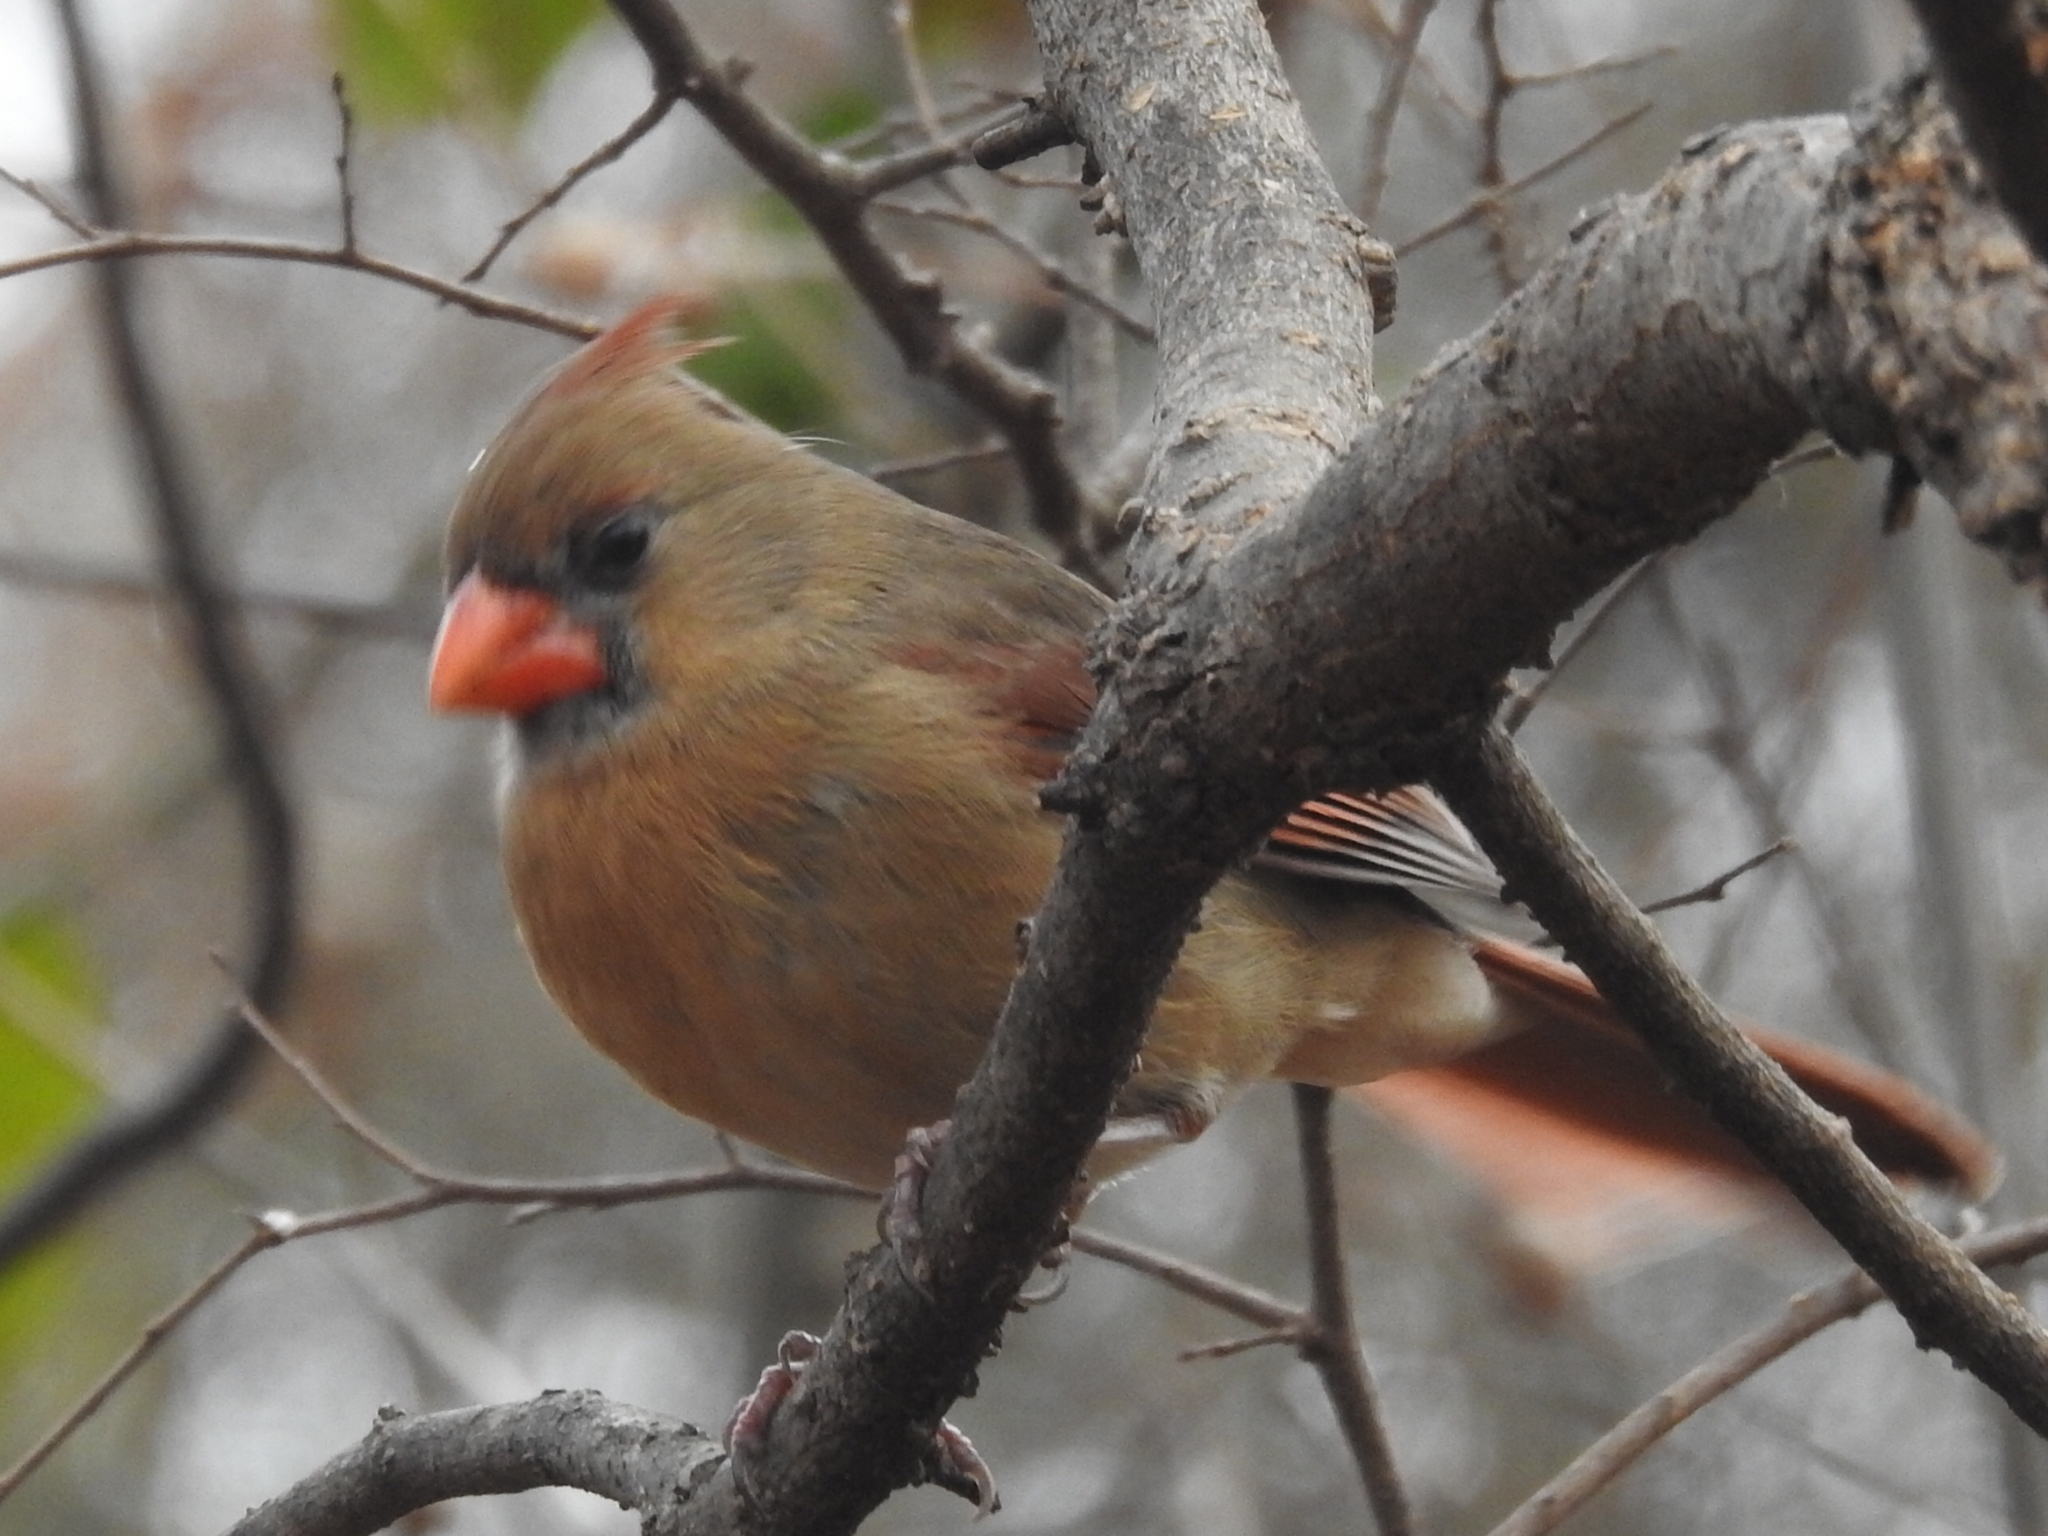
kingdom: Animalia
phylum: Chordata
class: Aves
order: Passeriformes
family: Cardinalidae
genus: Cardinalis
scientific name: Cardinalis cardinalis
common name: Northern cardinal
